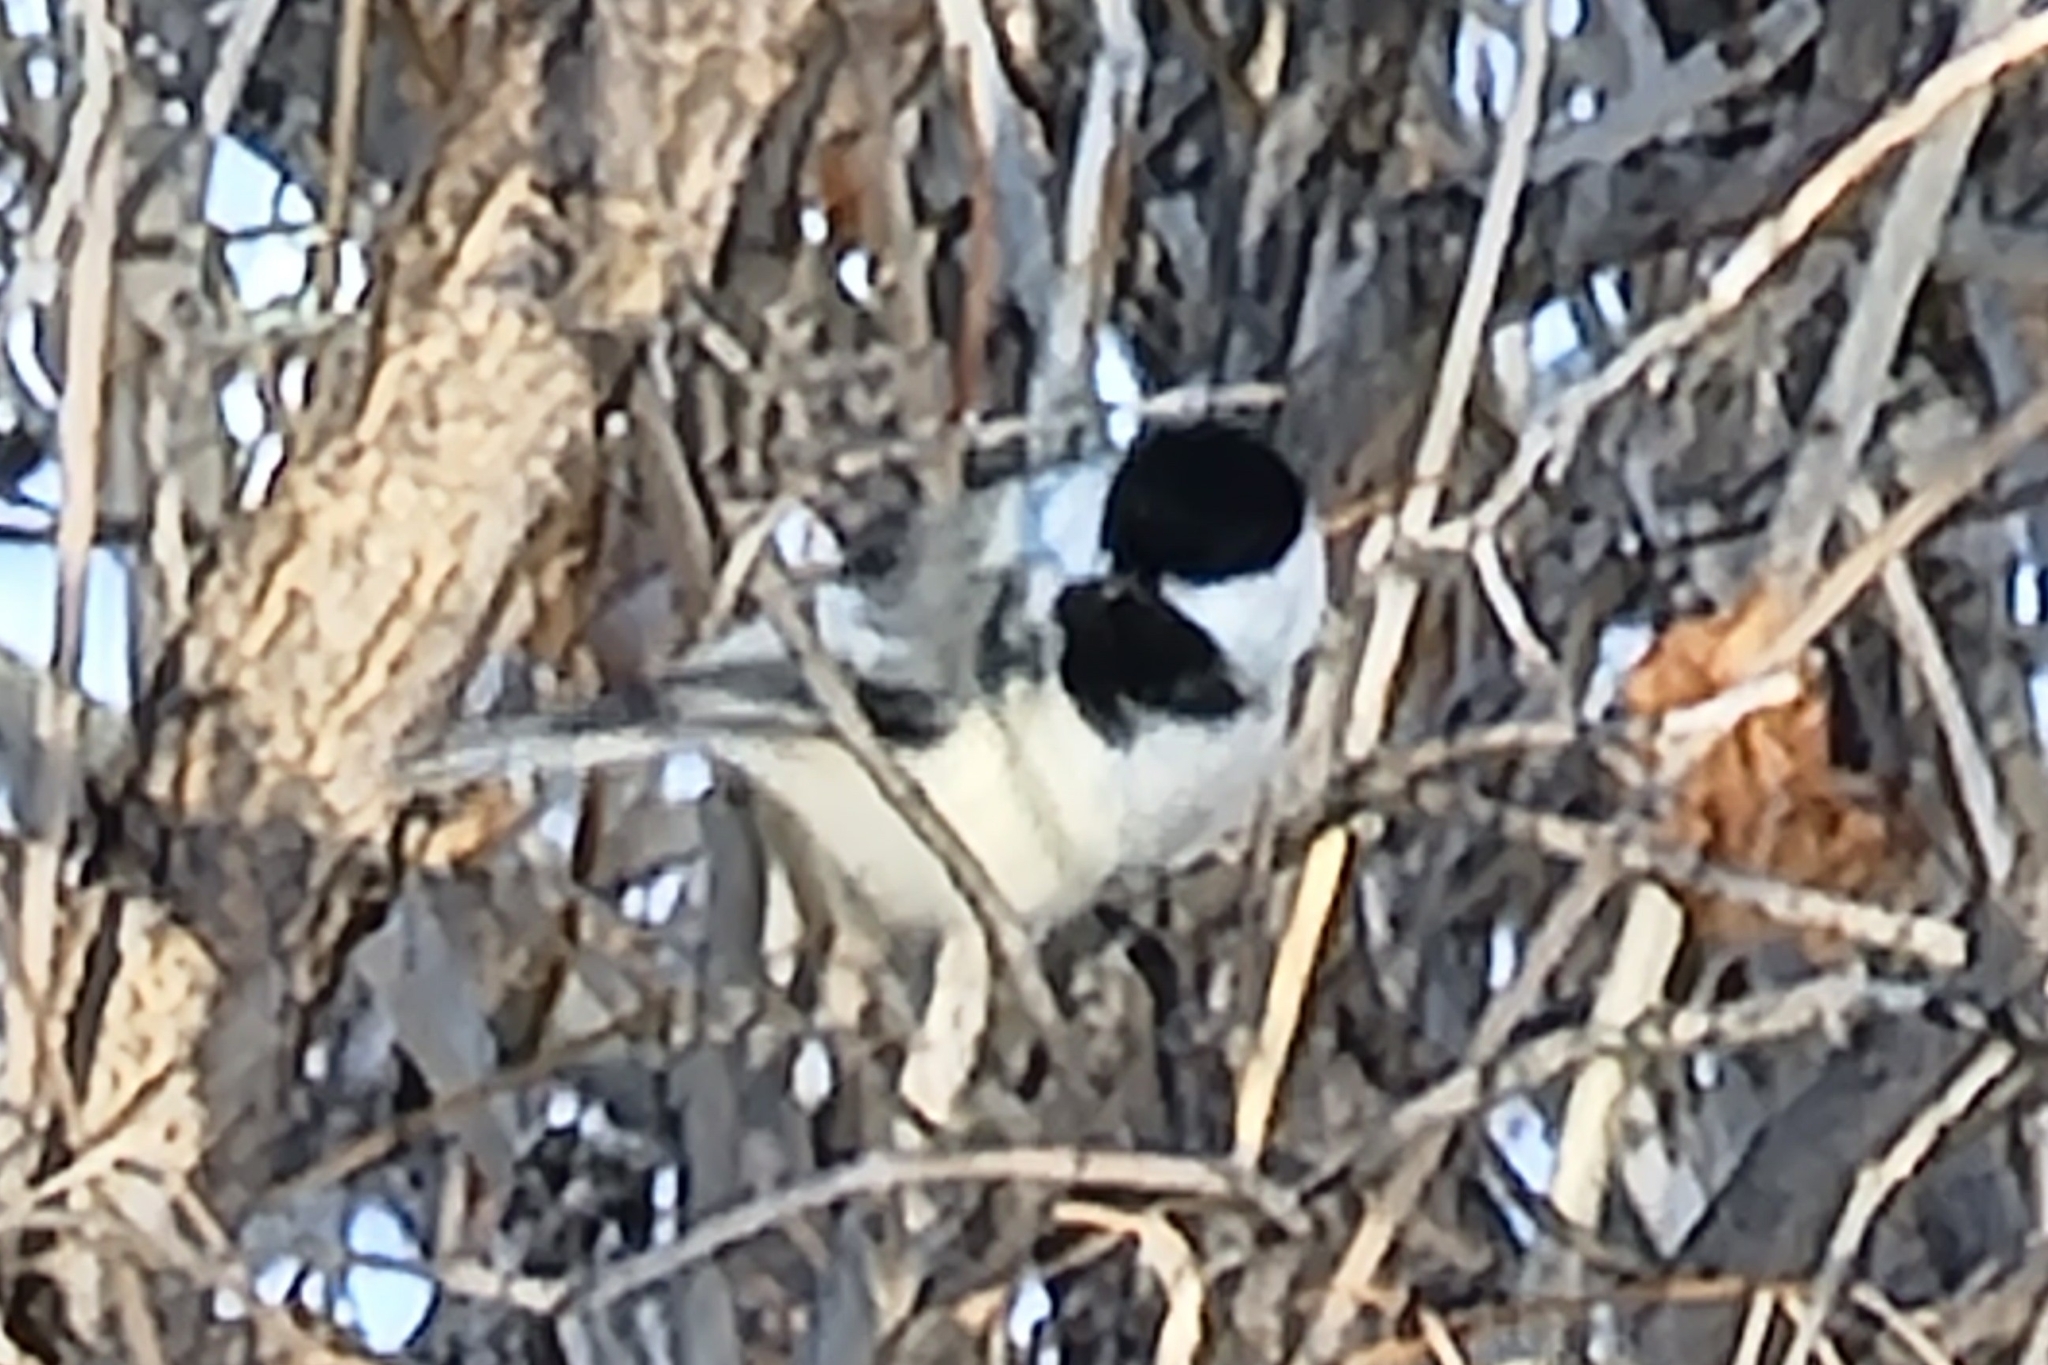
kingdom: Animalia
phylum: Chordata
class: Aves
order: Passeriformes
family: Paridae
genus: Poecile
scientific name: Poecile atricapillus
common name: Black-capped chickadee
